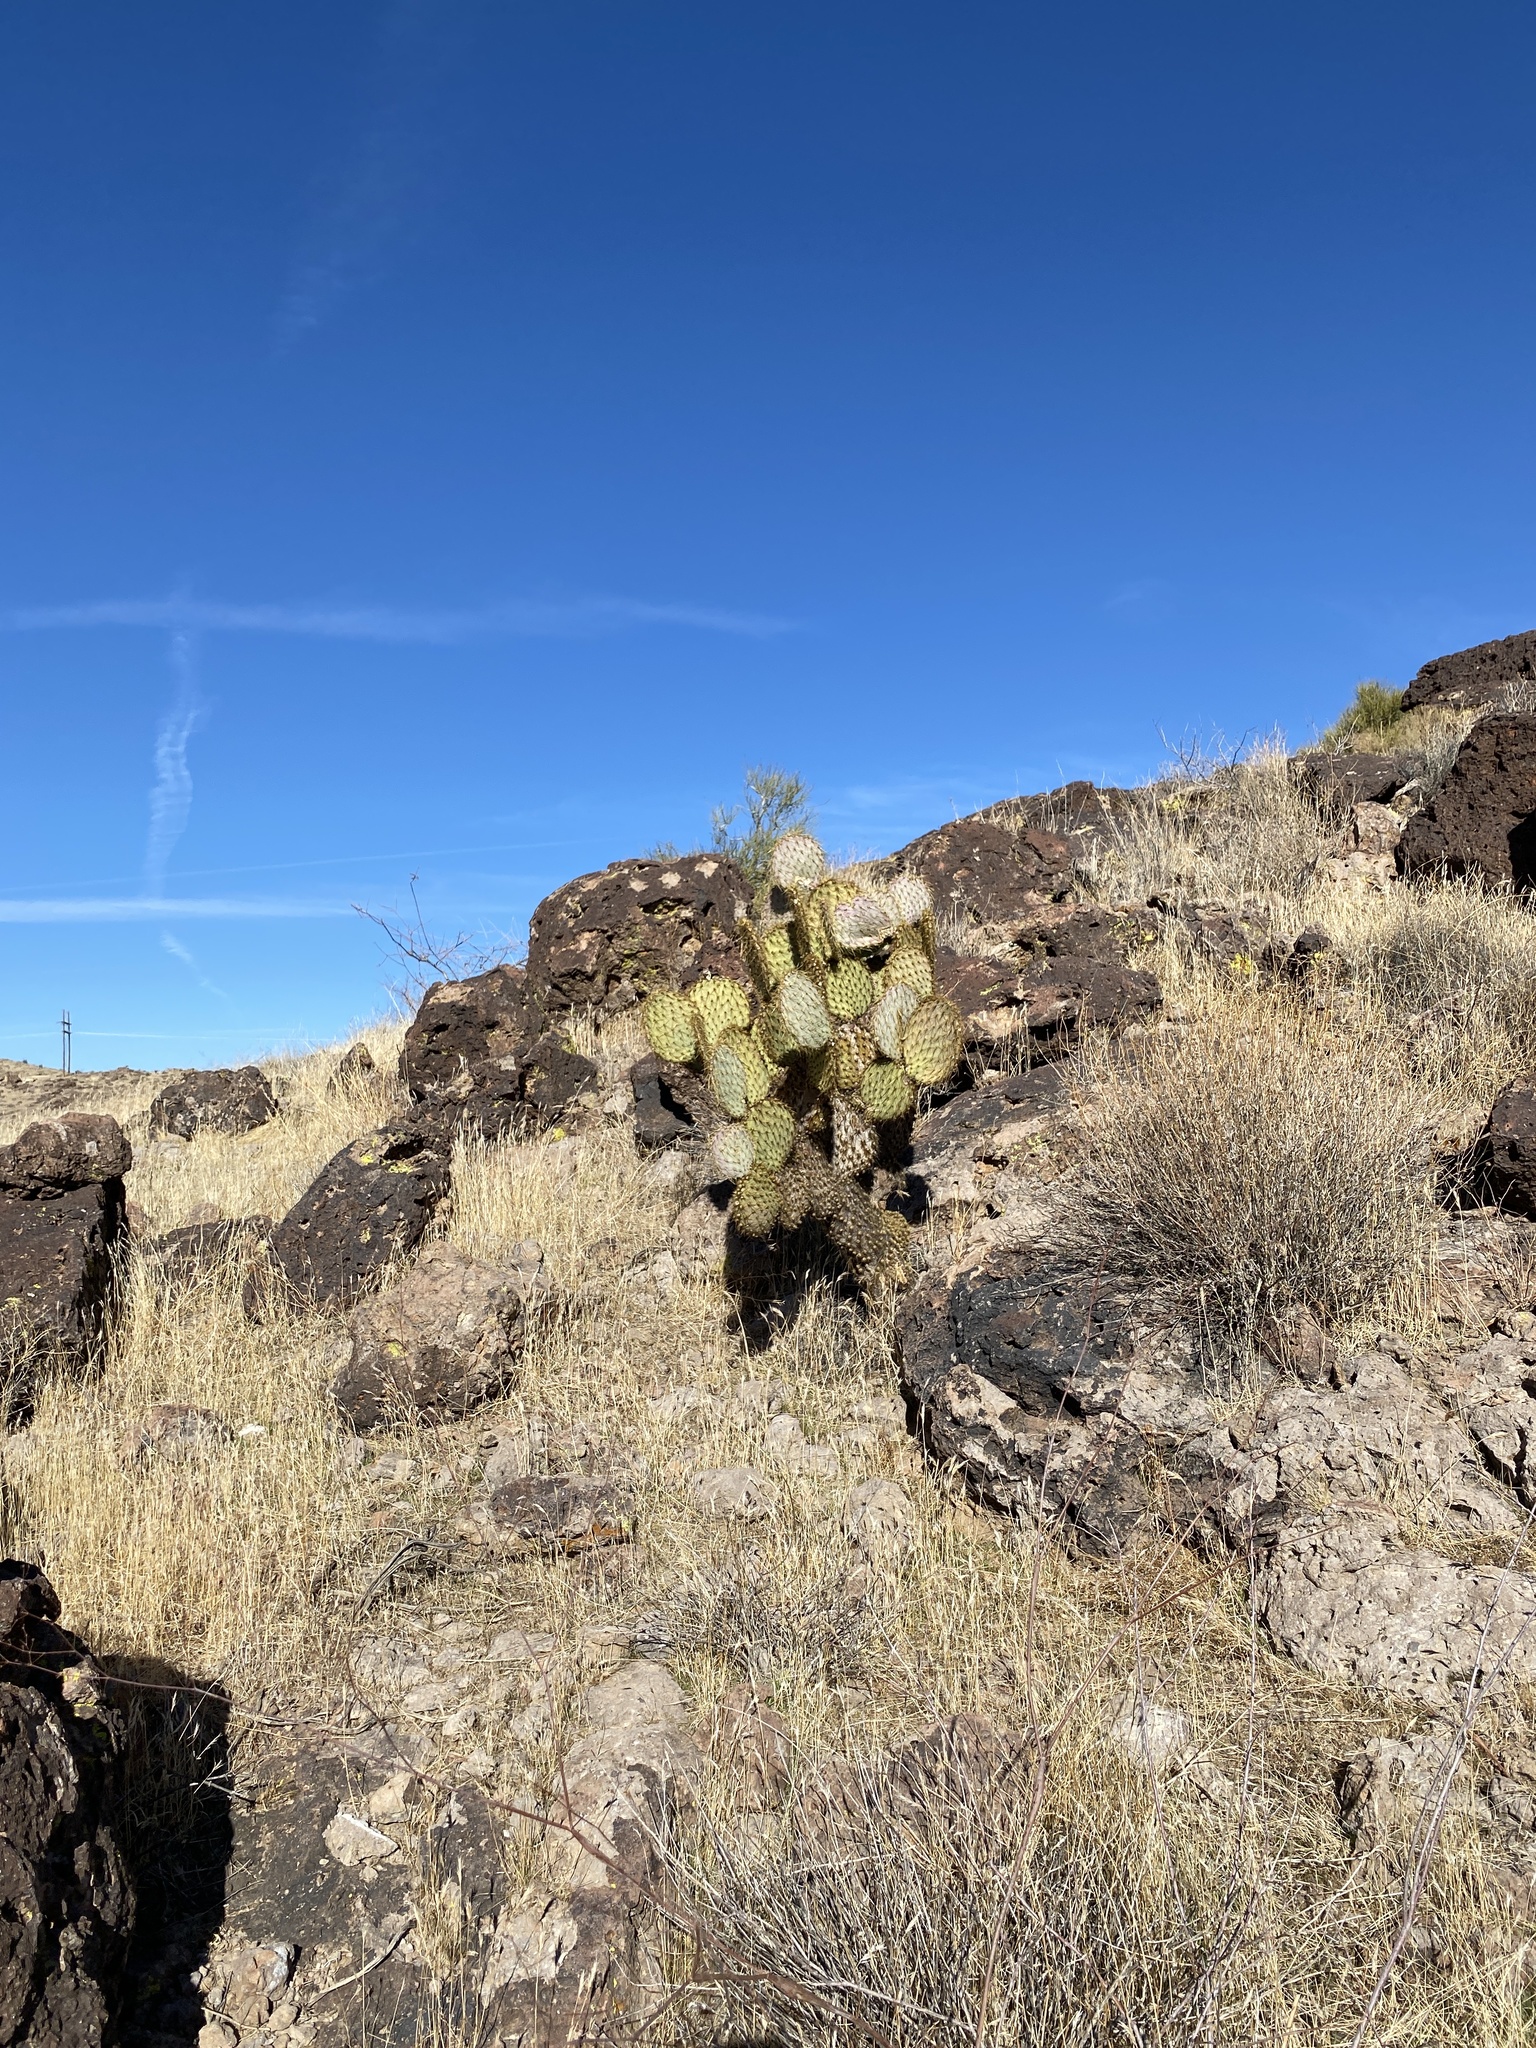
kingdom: Plantae
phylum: Tracheophyta
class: Magnoliopsida
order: Caryophyllales
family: Cactaceae
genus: Opuntia
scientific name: Opuntia chlorotica
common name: Dollar-joint prickly-pear
